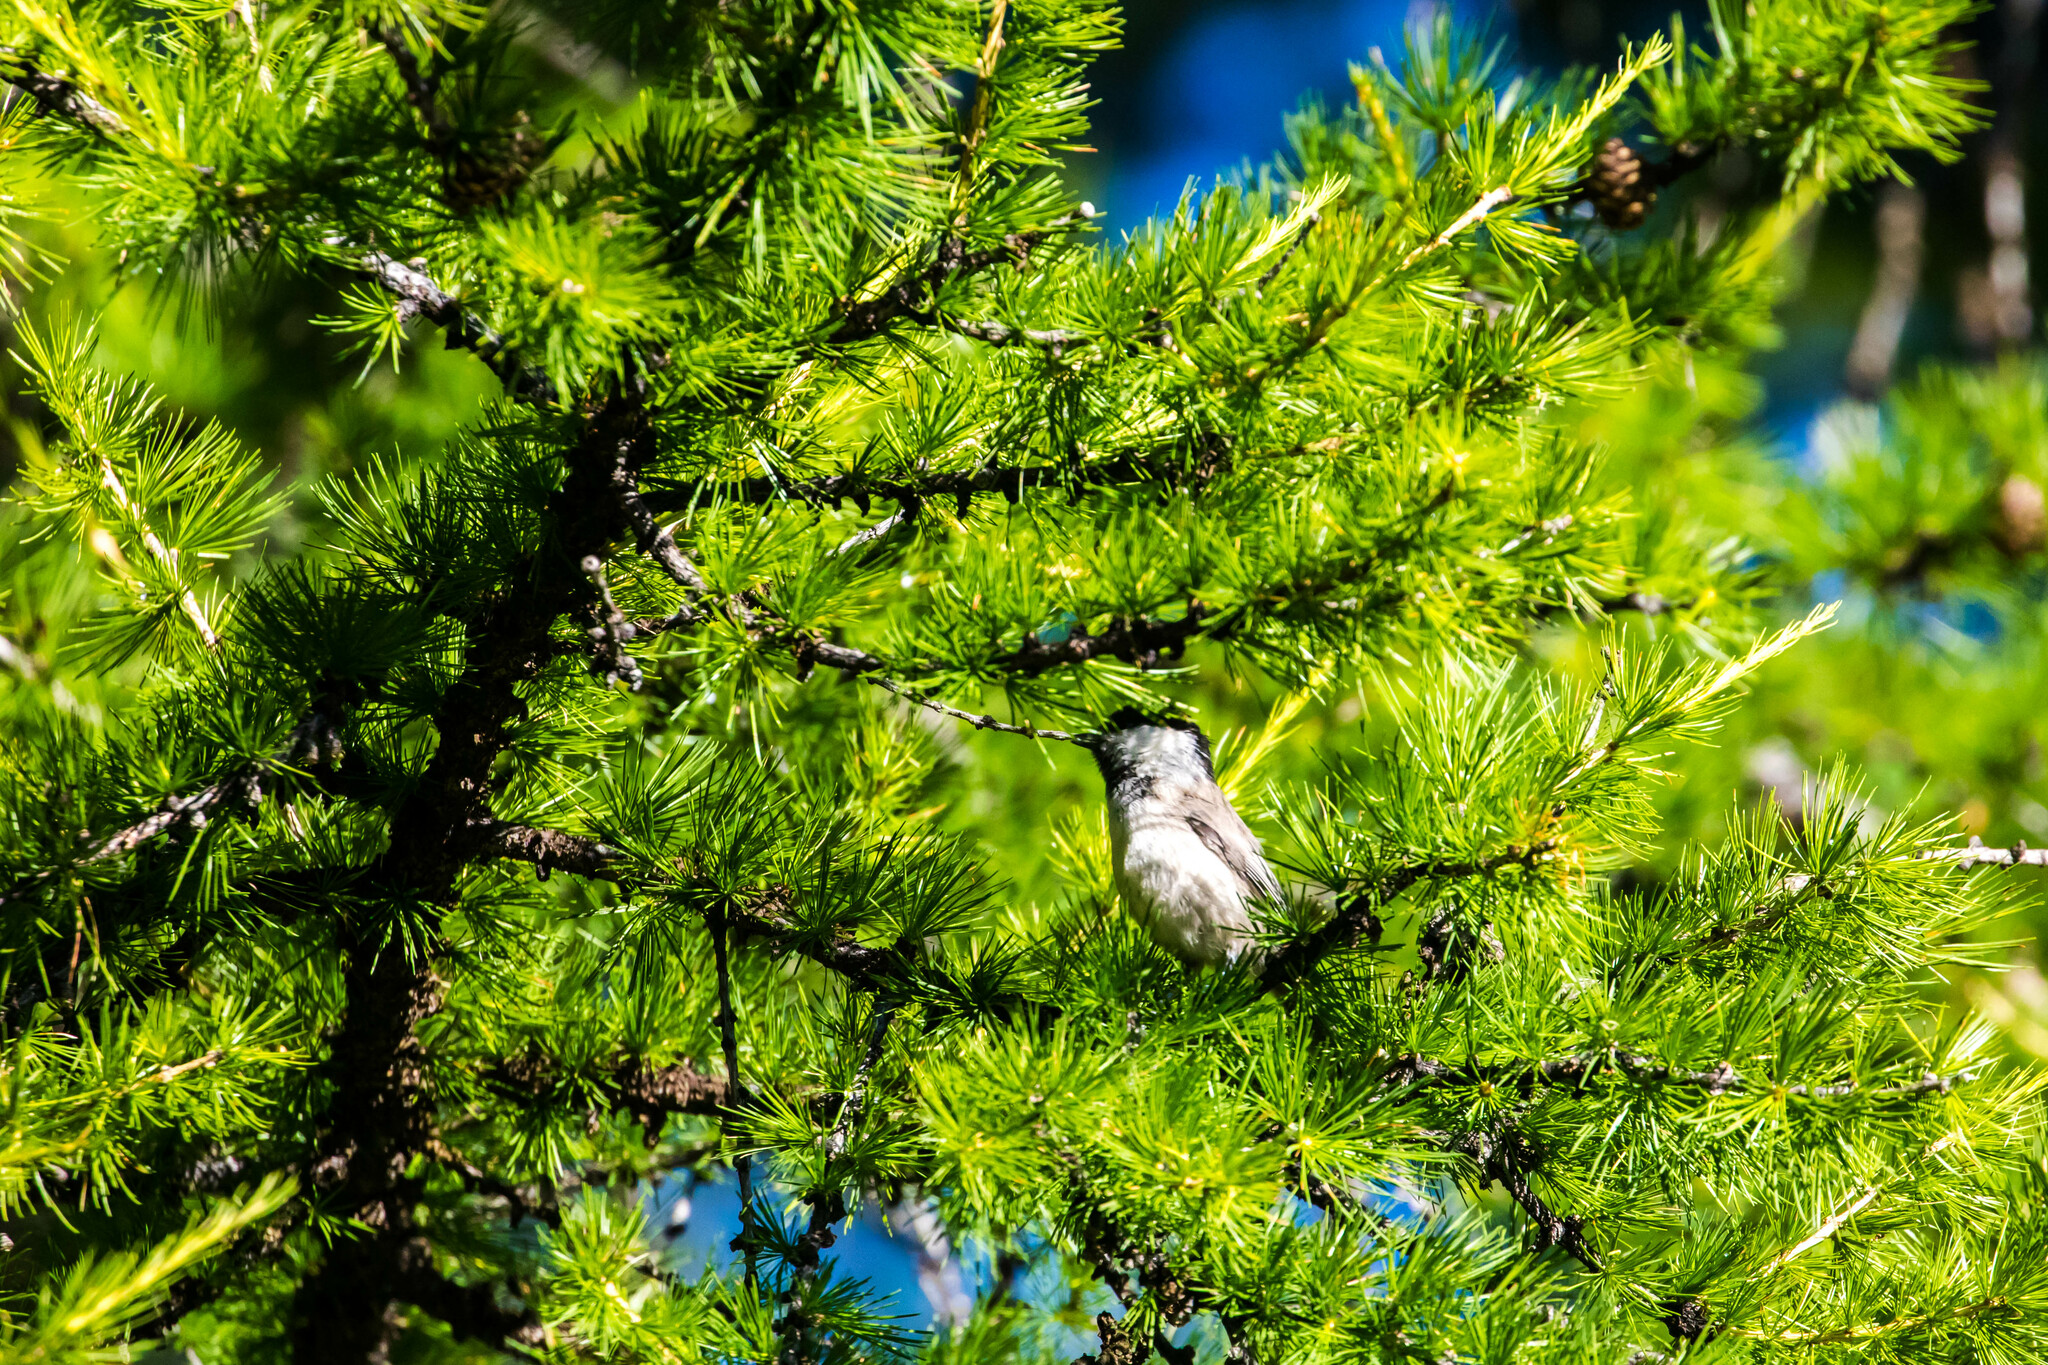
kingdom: Animalia
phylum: Chordata
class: Aves
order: Passeriformes
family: Paridae
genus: Poecile
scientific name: Poecile montanus
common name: Willow tit
